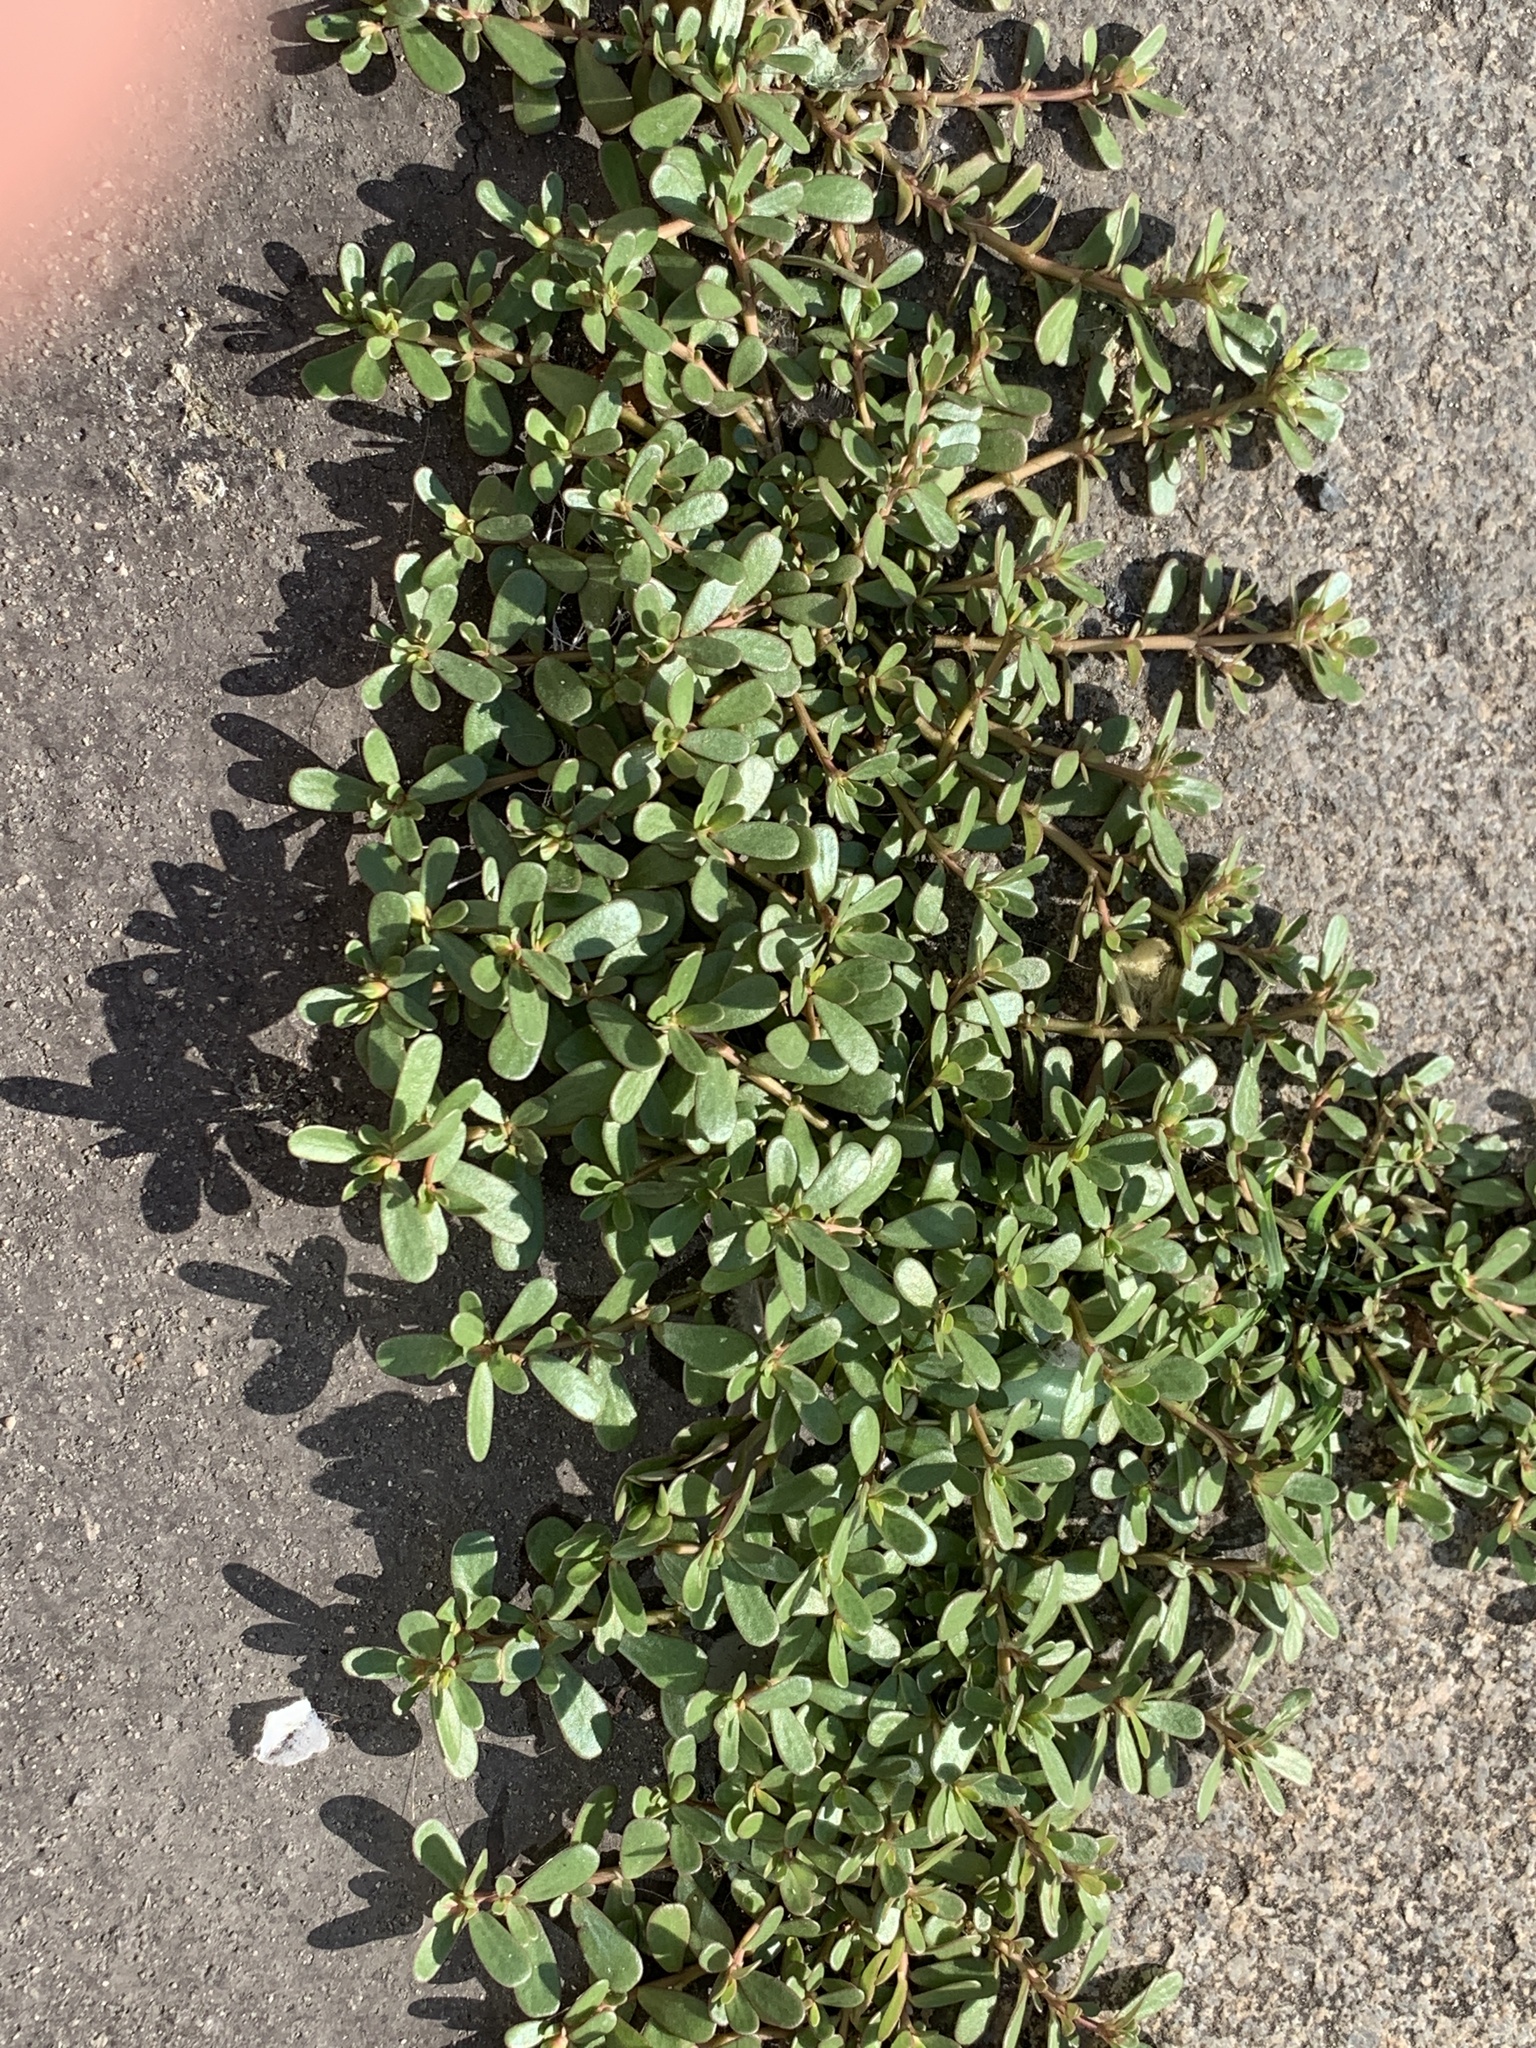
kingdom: Plantae
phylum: Tracheophyta
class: Magnoliopsida
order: Caryophyllales
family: Portulacaceae
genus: Portulaca
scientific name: Portulaca oleracea
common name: Common purslane
